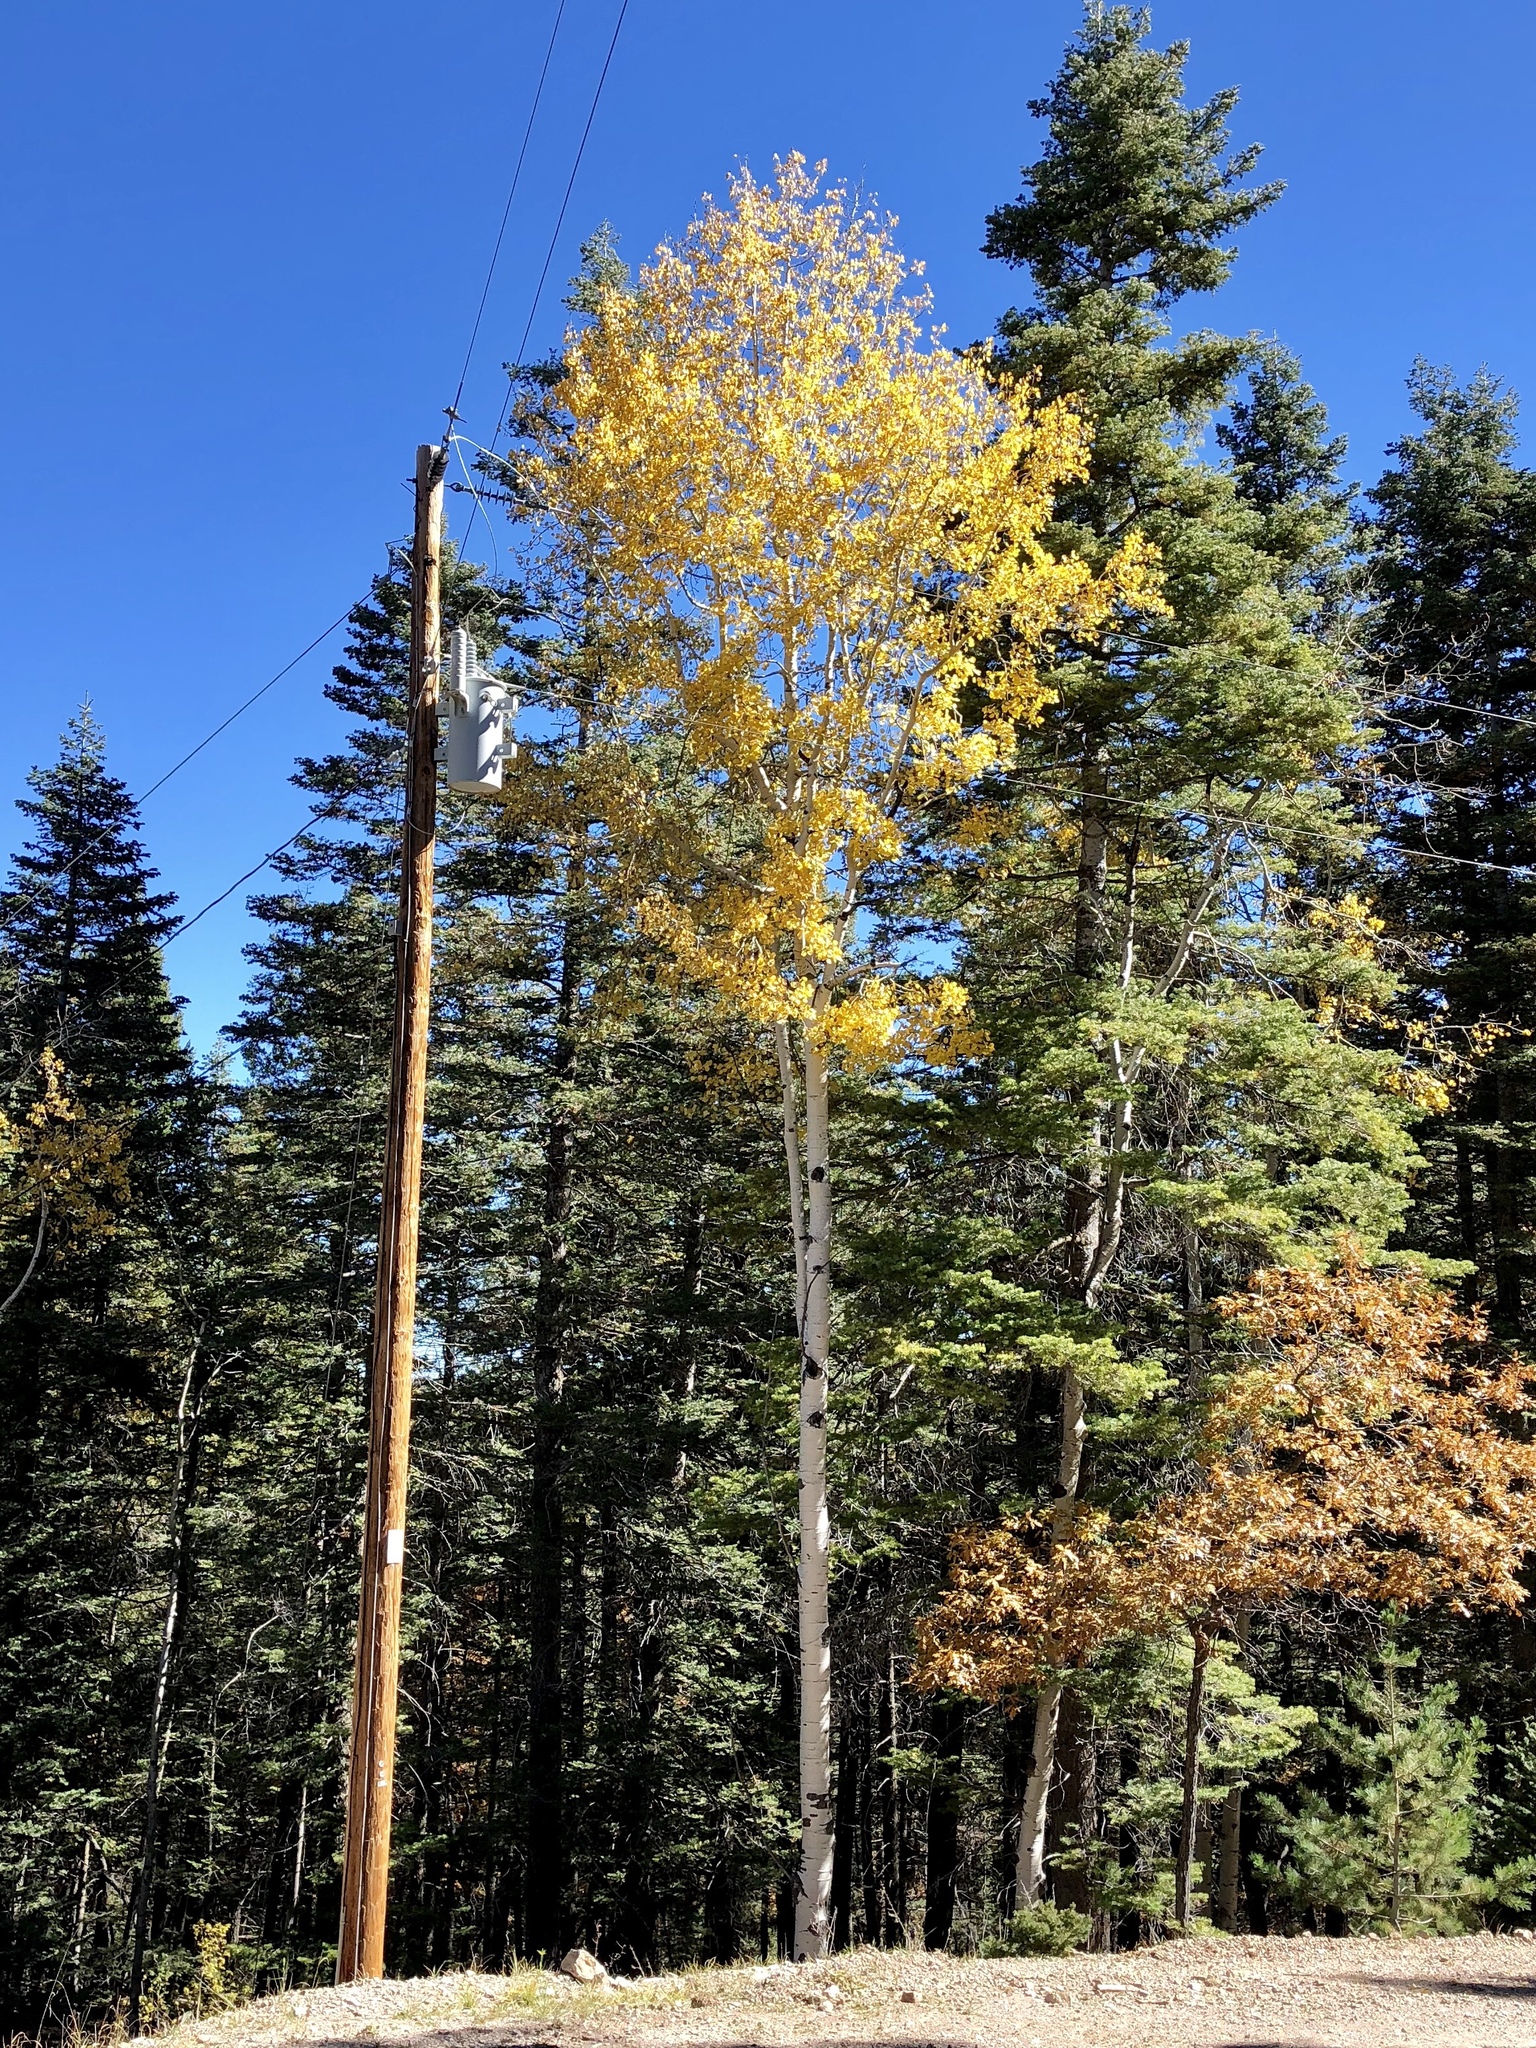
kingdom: Plantae
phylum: Tracheophyta
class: Magnoliopsida
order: Malpighiales
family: Salicaceae
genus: Populus
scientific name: Populus tremuloides
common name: Quaking aspen
